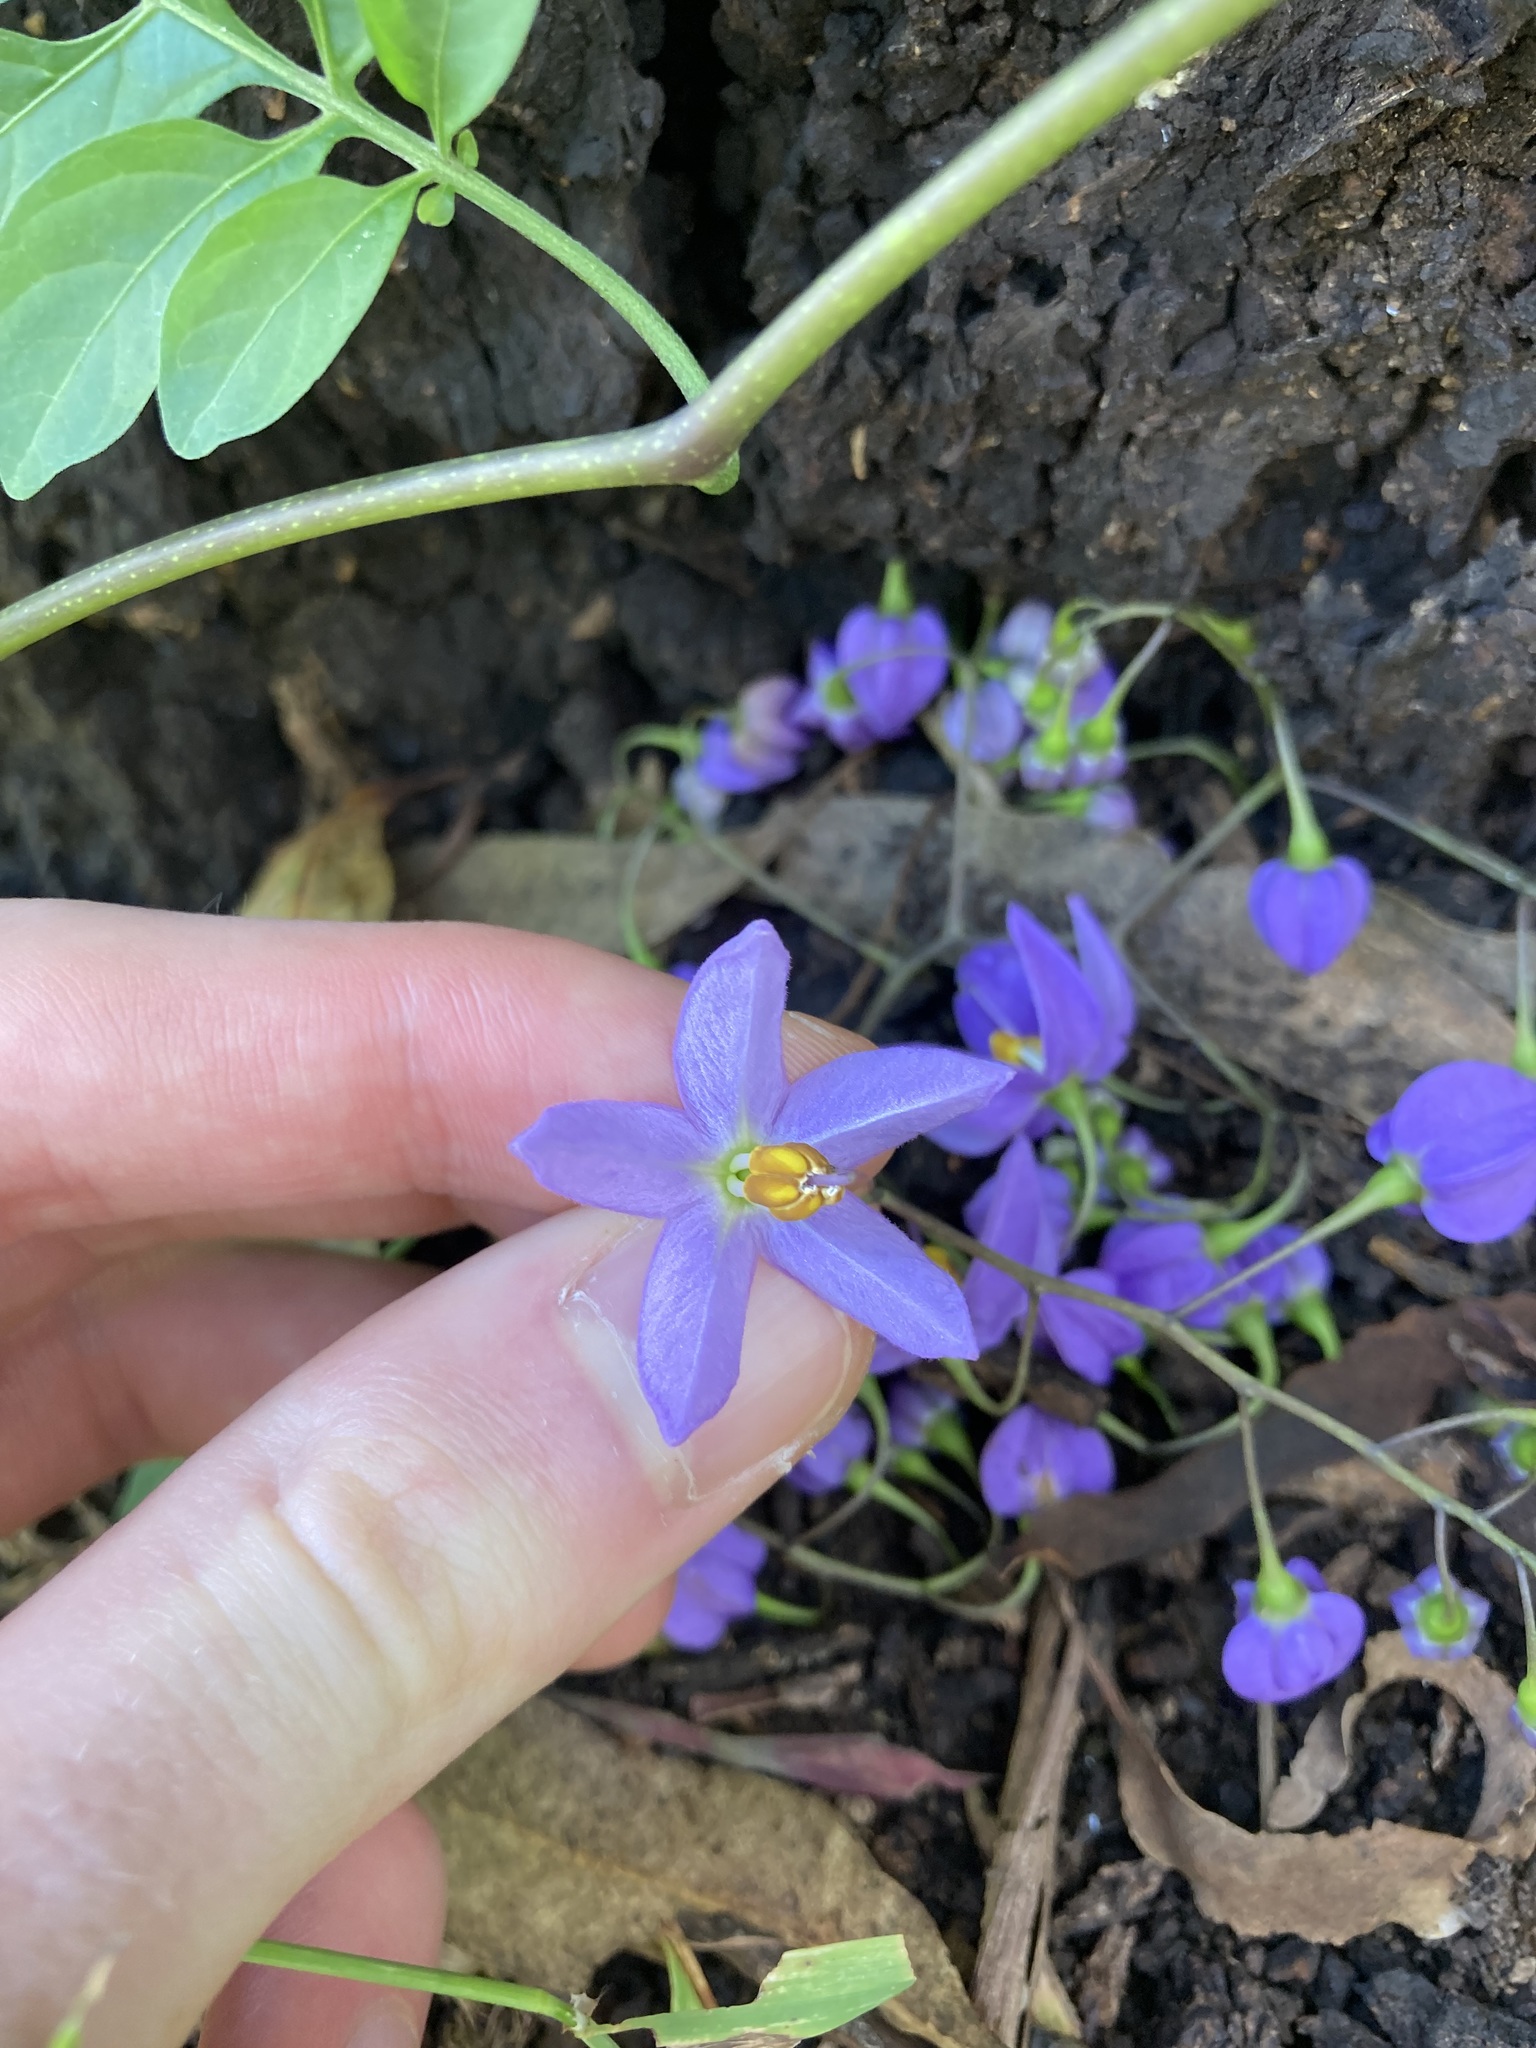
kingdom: Plantae
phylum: Tracheophyta
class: Magnoliopsida
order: Solanales
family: Solanaceae
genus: Solanum
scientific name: Solanum seaforthianum
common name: Brazilian nightshade
